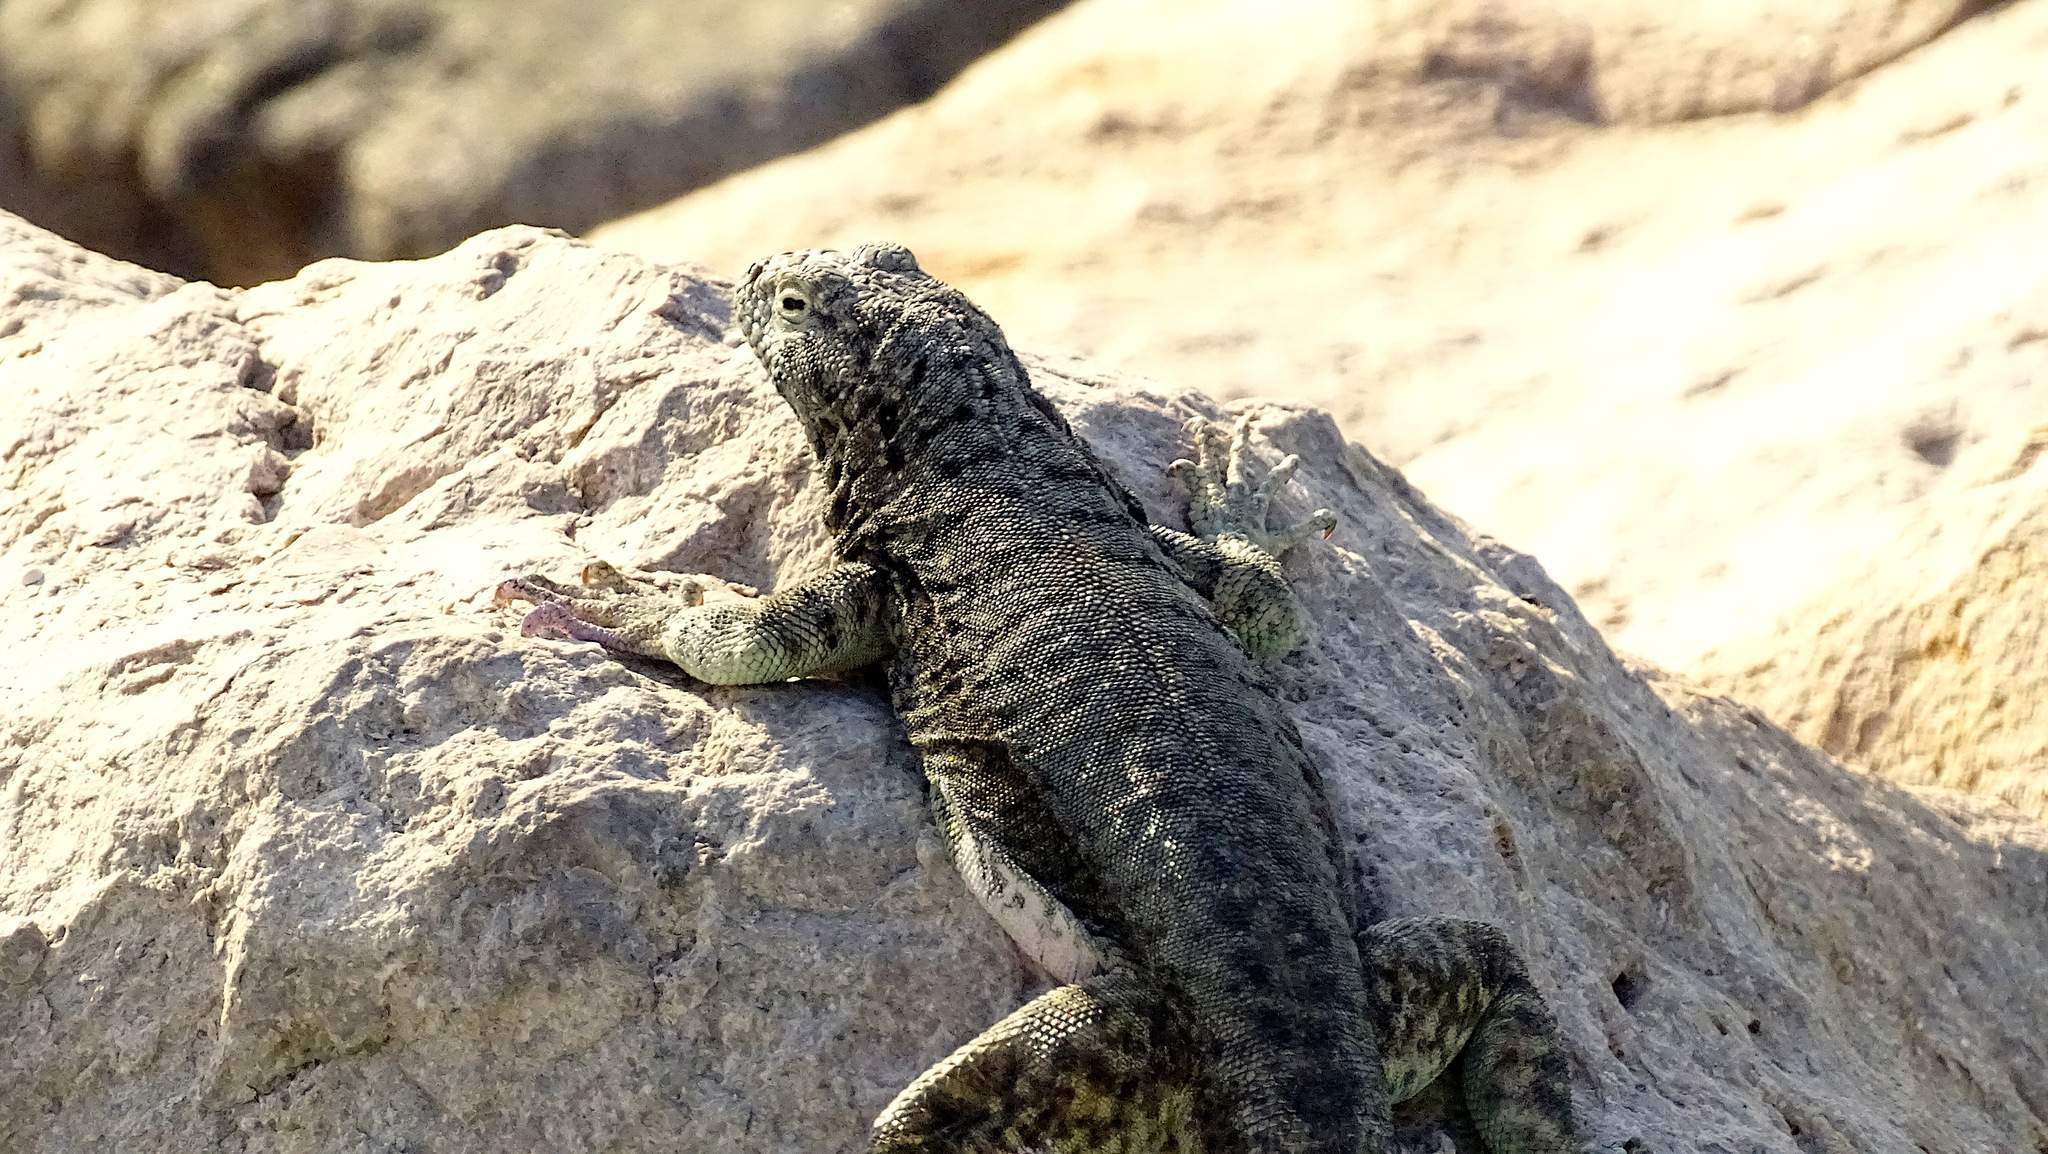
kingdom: Animalia
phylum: Chordata
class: Squamata
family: Tropiduridae
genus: Microlophus
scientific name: Microlophus atacamensis
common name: Atacamen pacific iguana
